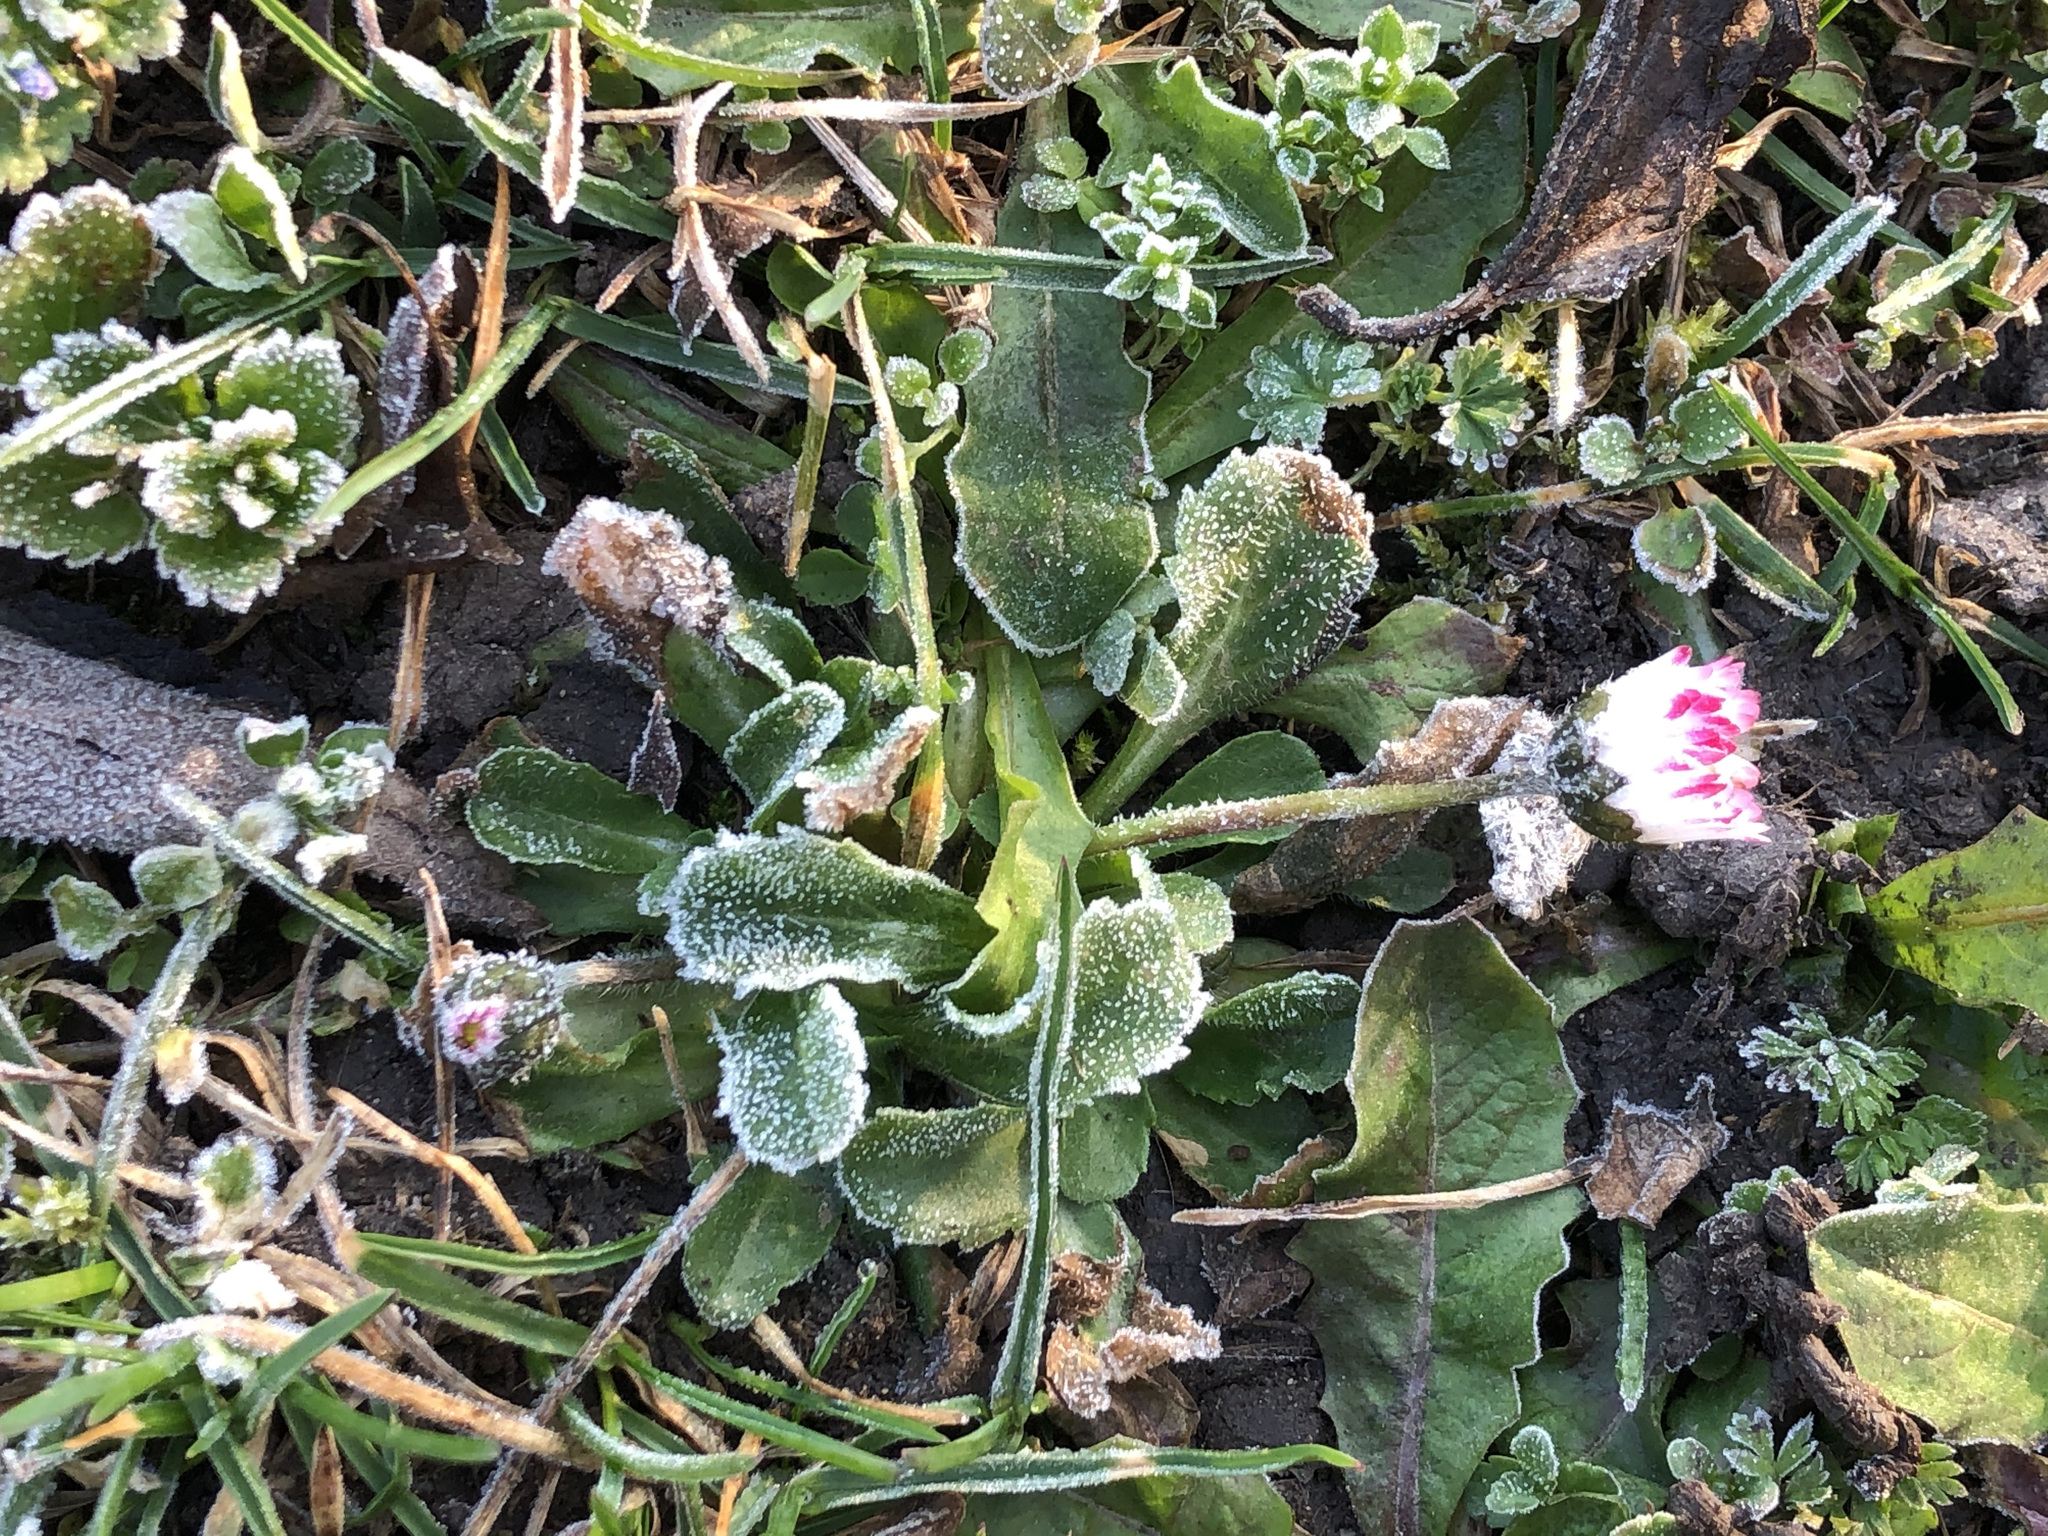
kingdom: Plantae
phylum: Tracheophyta
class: Magnoliopsida
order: Asterales
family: Asteraceae
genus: Bellis
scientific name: Bellis perennis
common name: Lawndaisy
